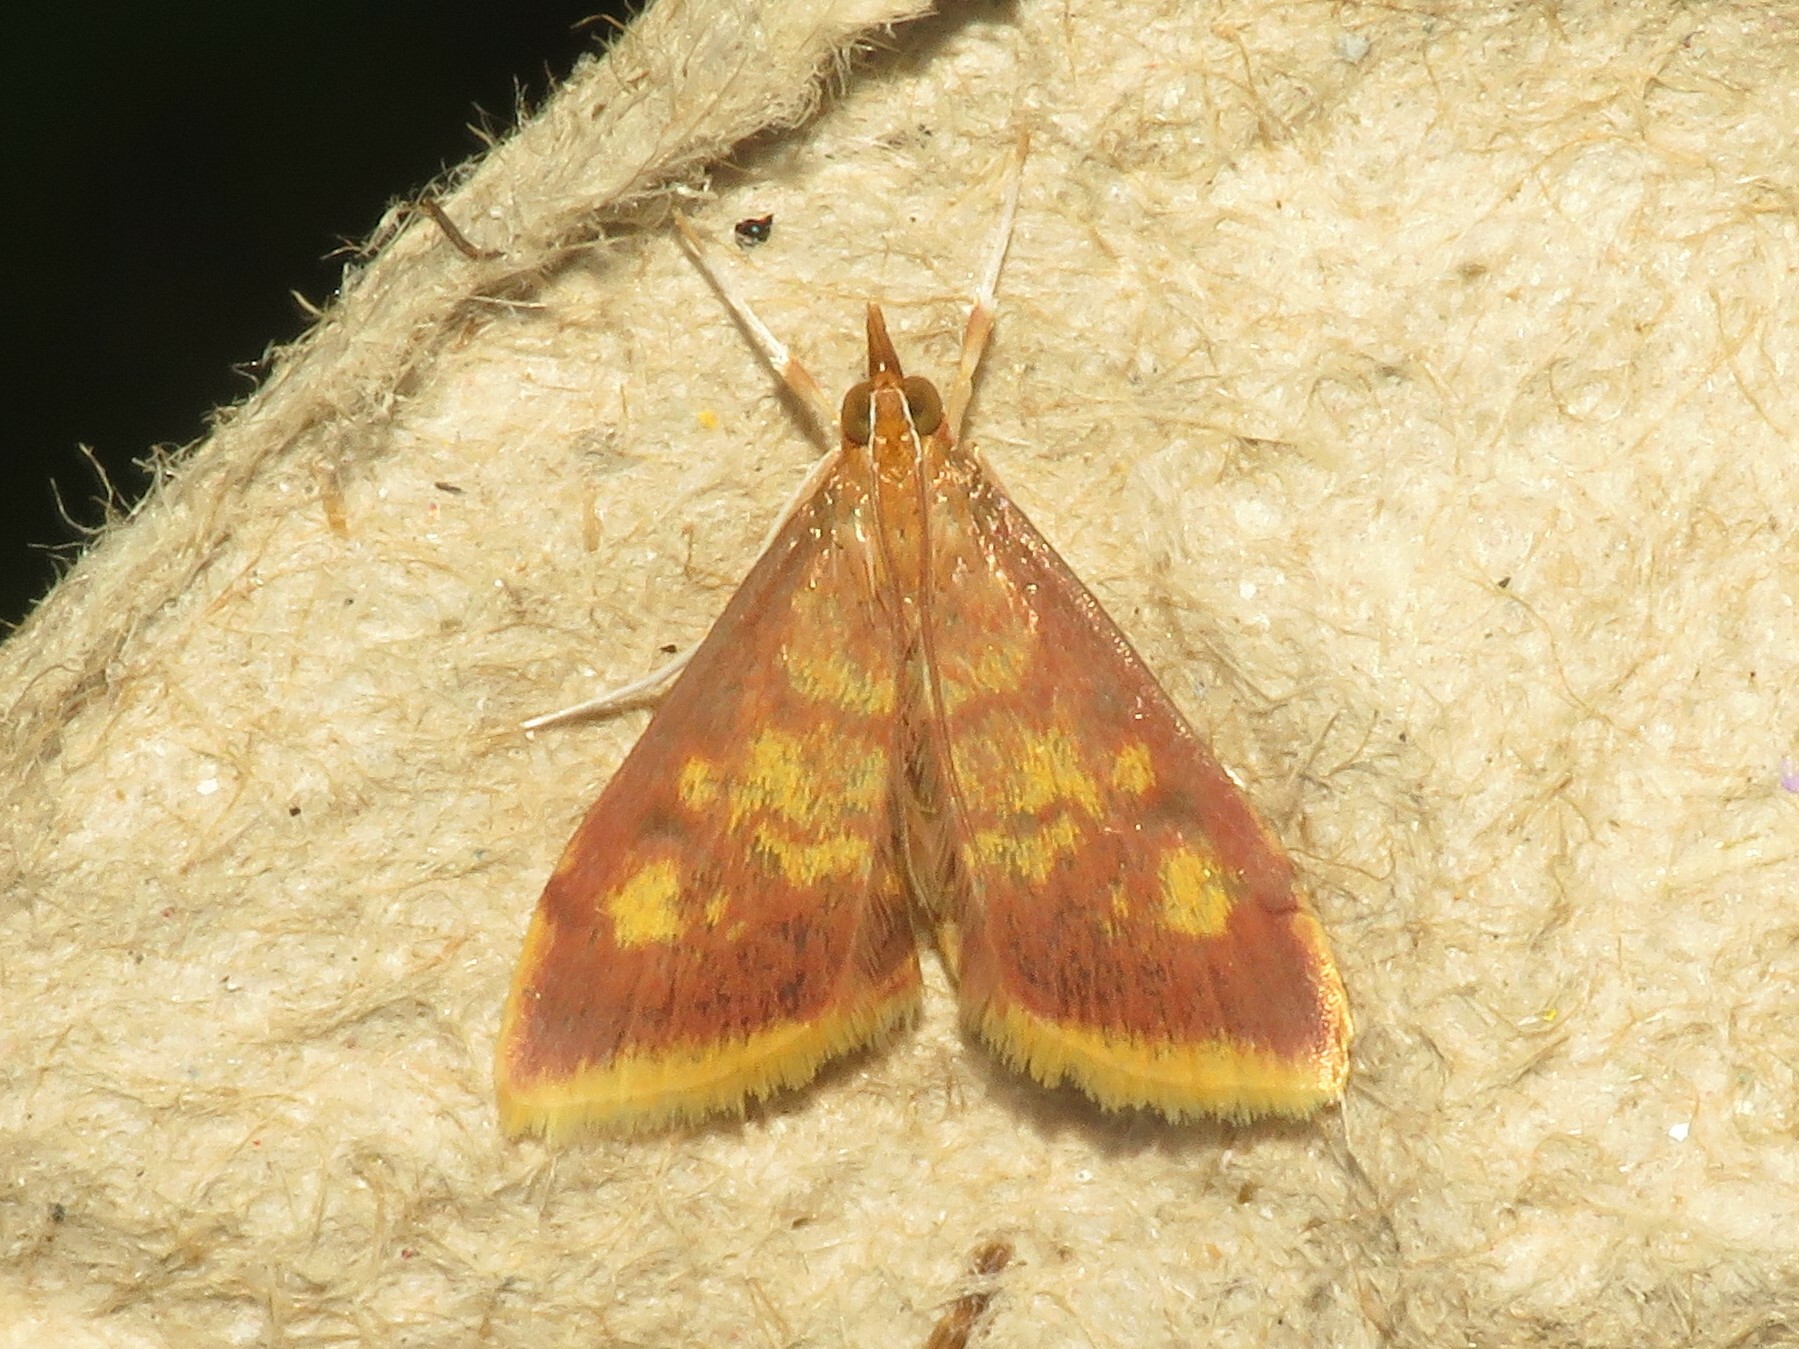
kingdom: Animalia
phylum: Arthropoda
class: Insecta
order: Lepidoptera
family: Crambidae
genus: Pyrausta
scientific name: Pyrausta acrionalis
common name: Mint-loving pyrausta moth
